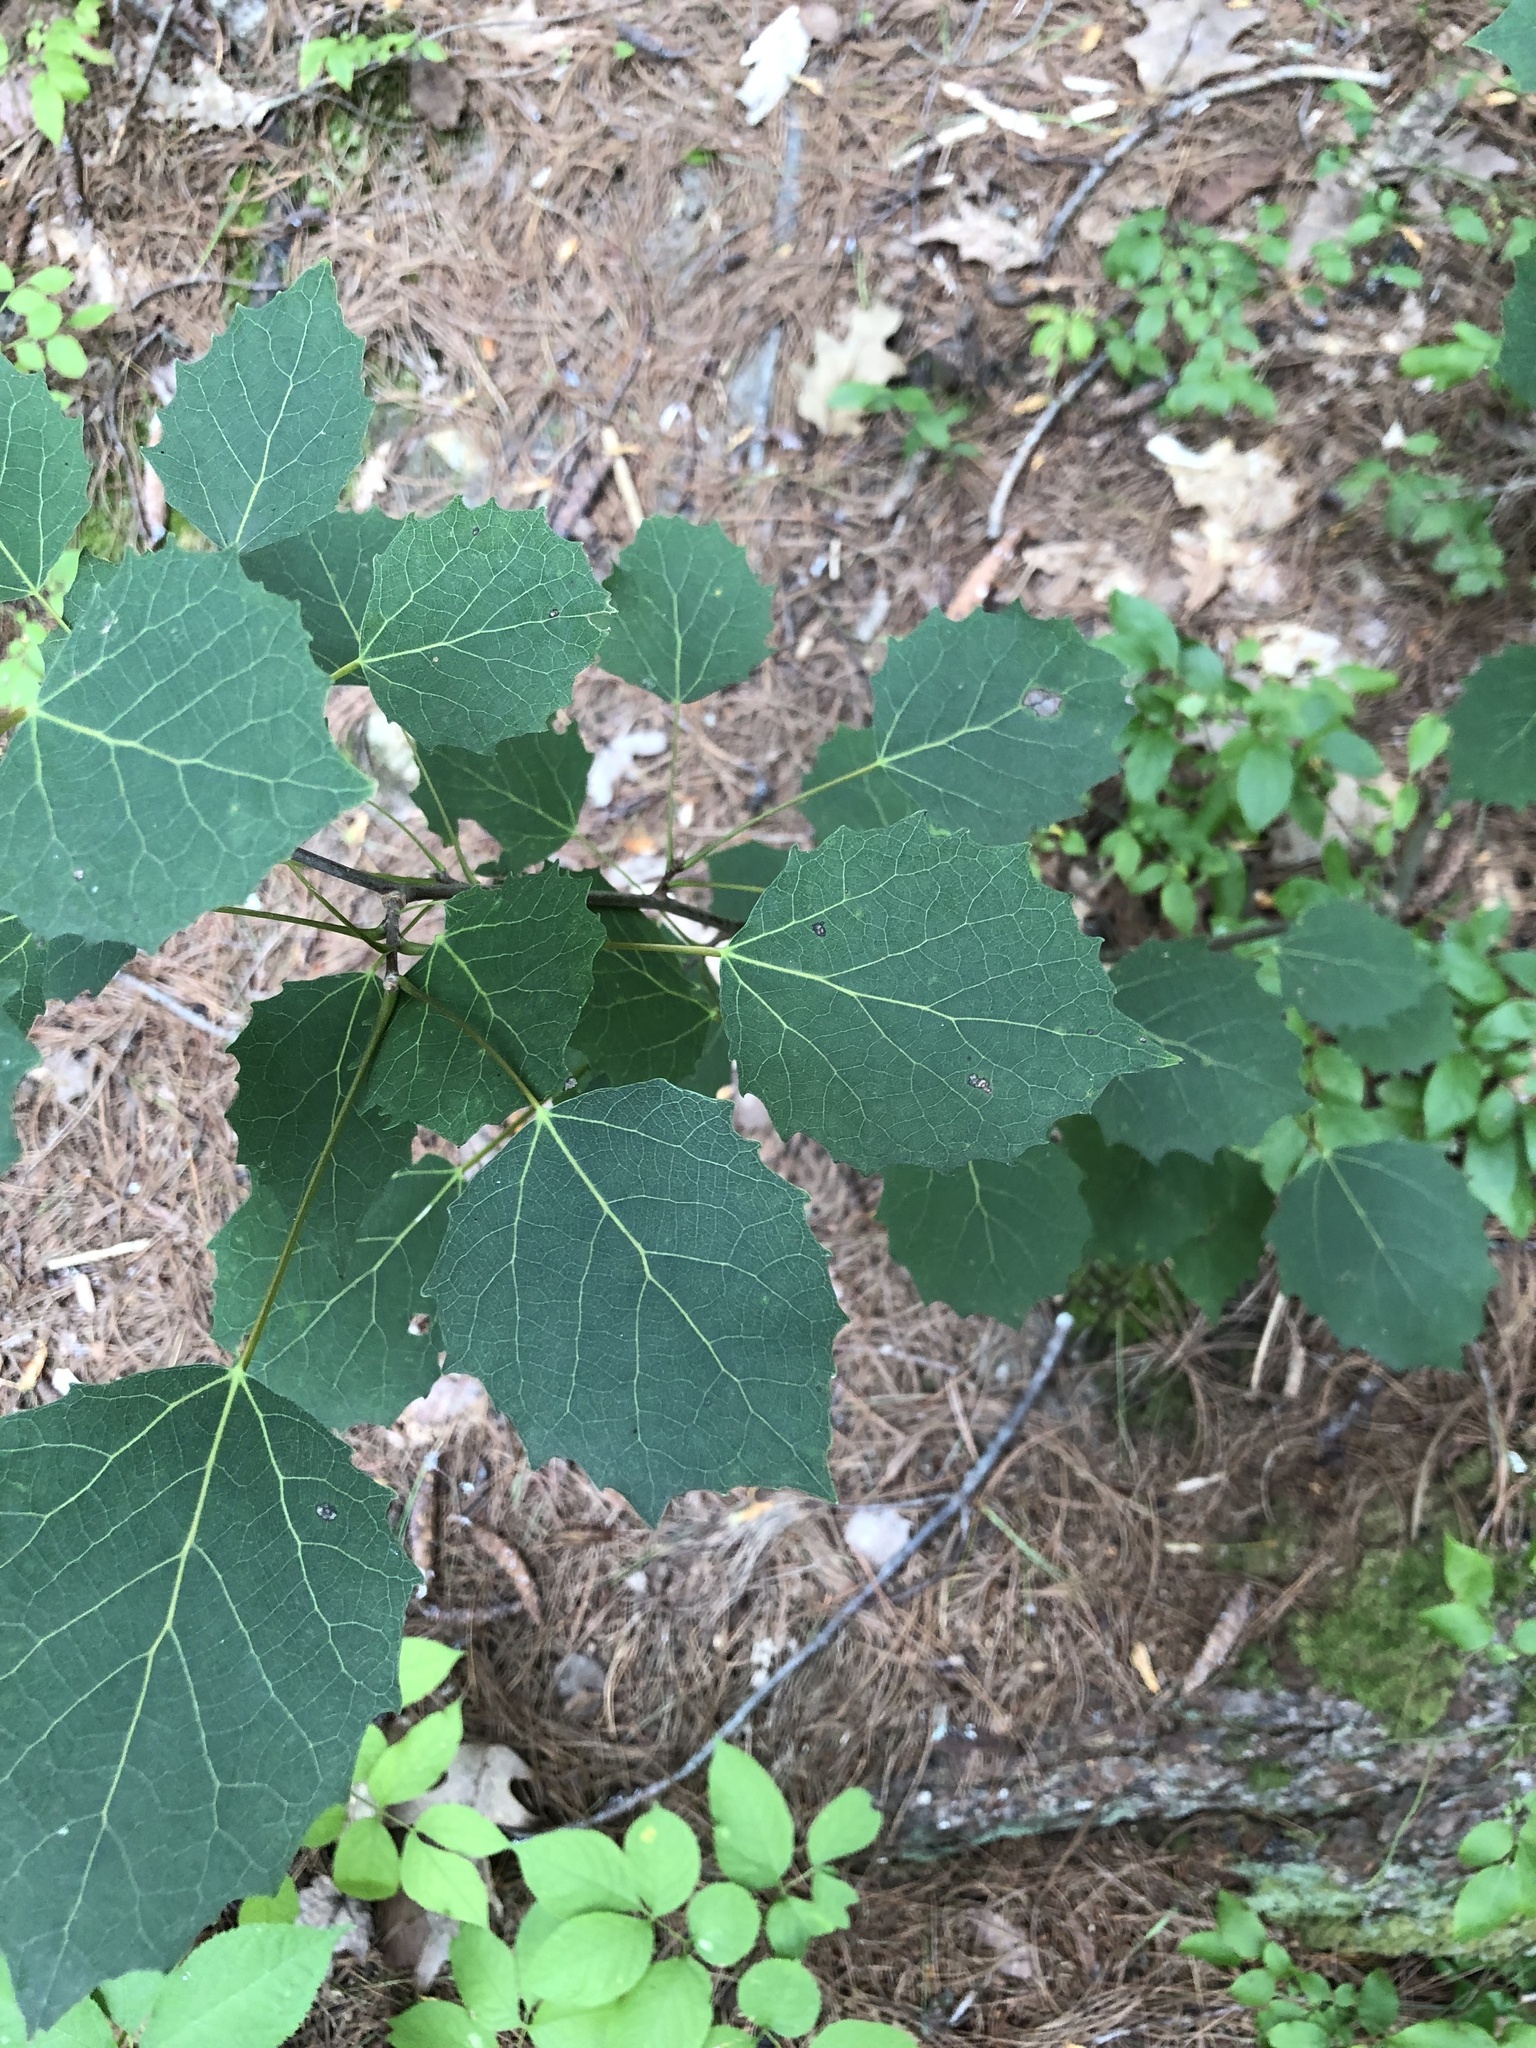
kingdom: Plantae
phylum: Tracheophyta
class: Magnoliopsida
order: Malpighiales
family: Salicaceae
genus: Populus
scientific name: Populus grandidentata
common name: Bigtooth aspen
